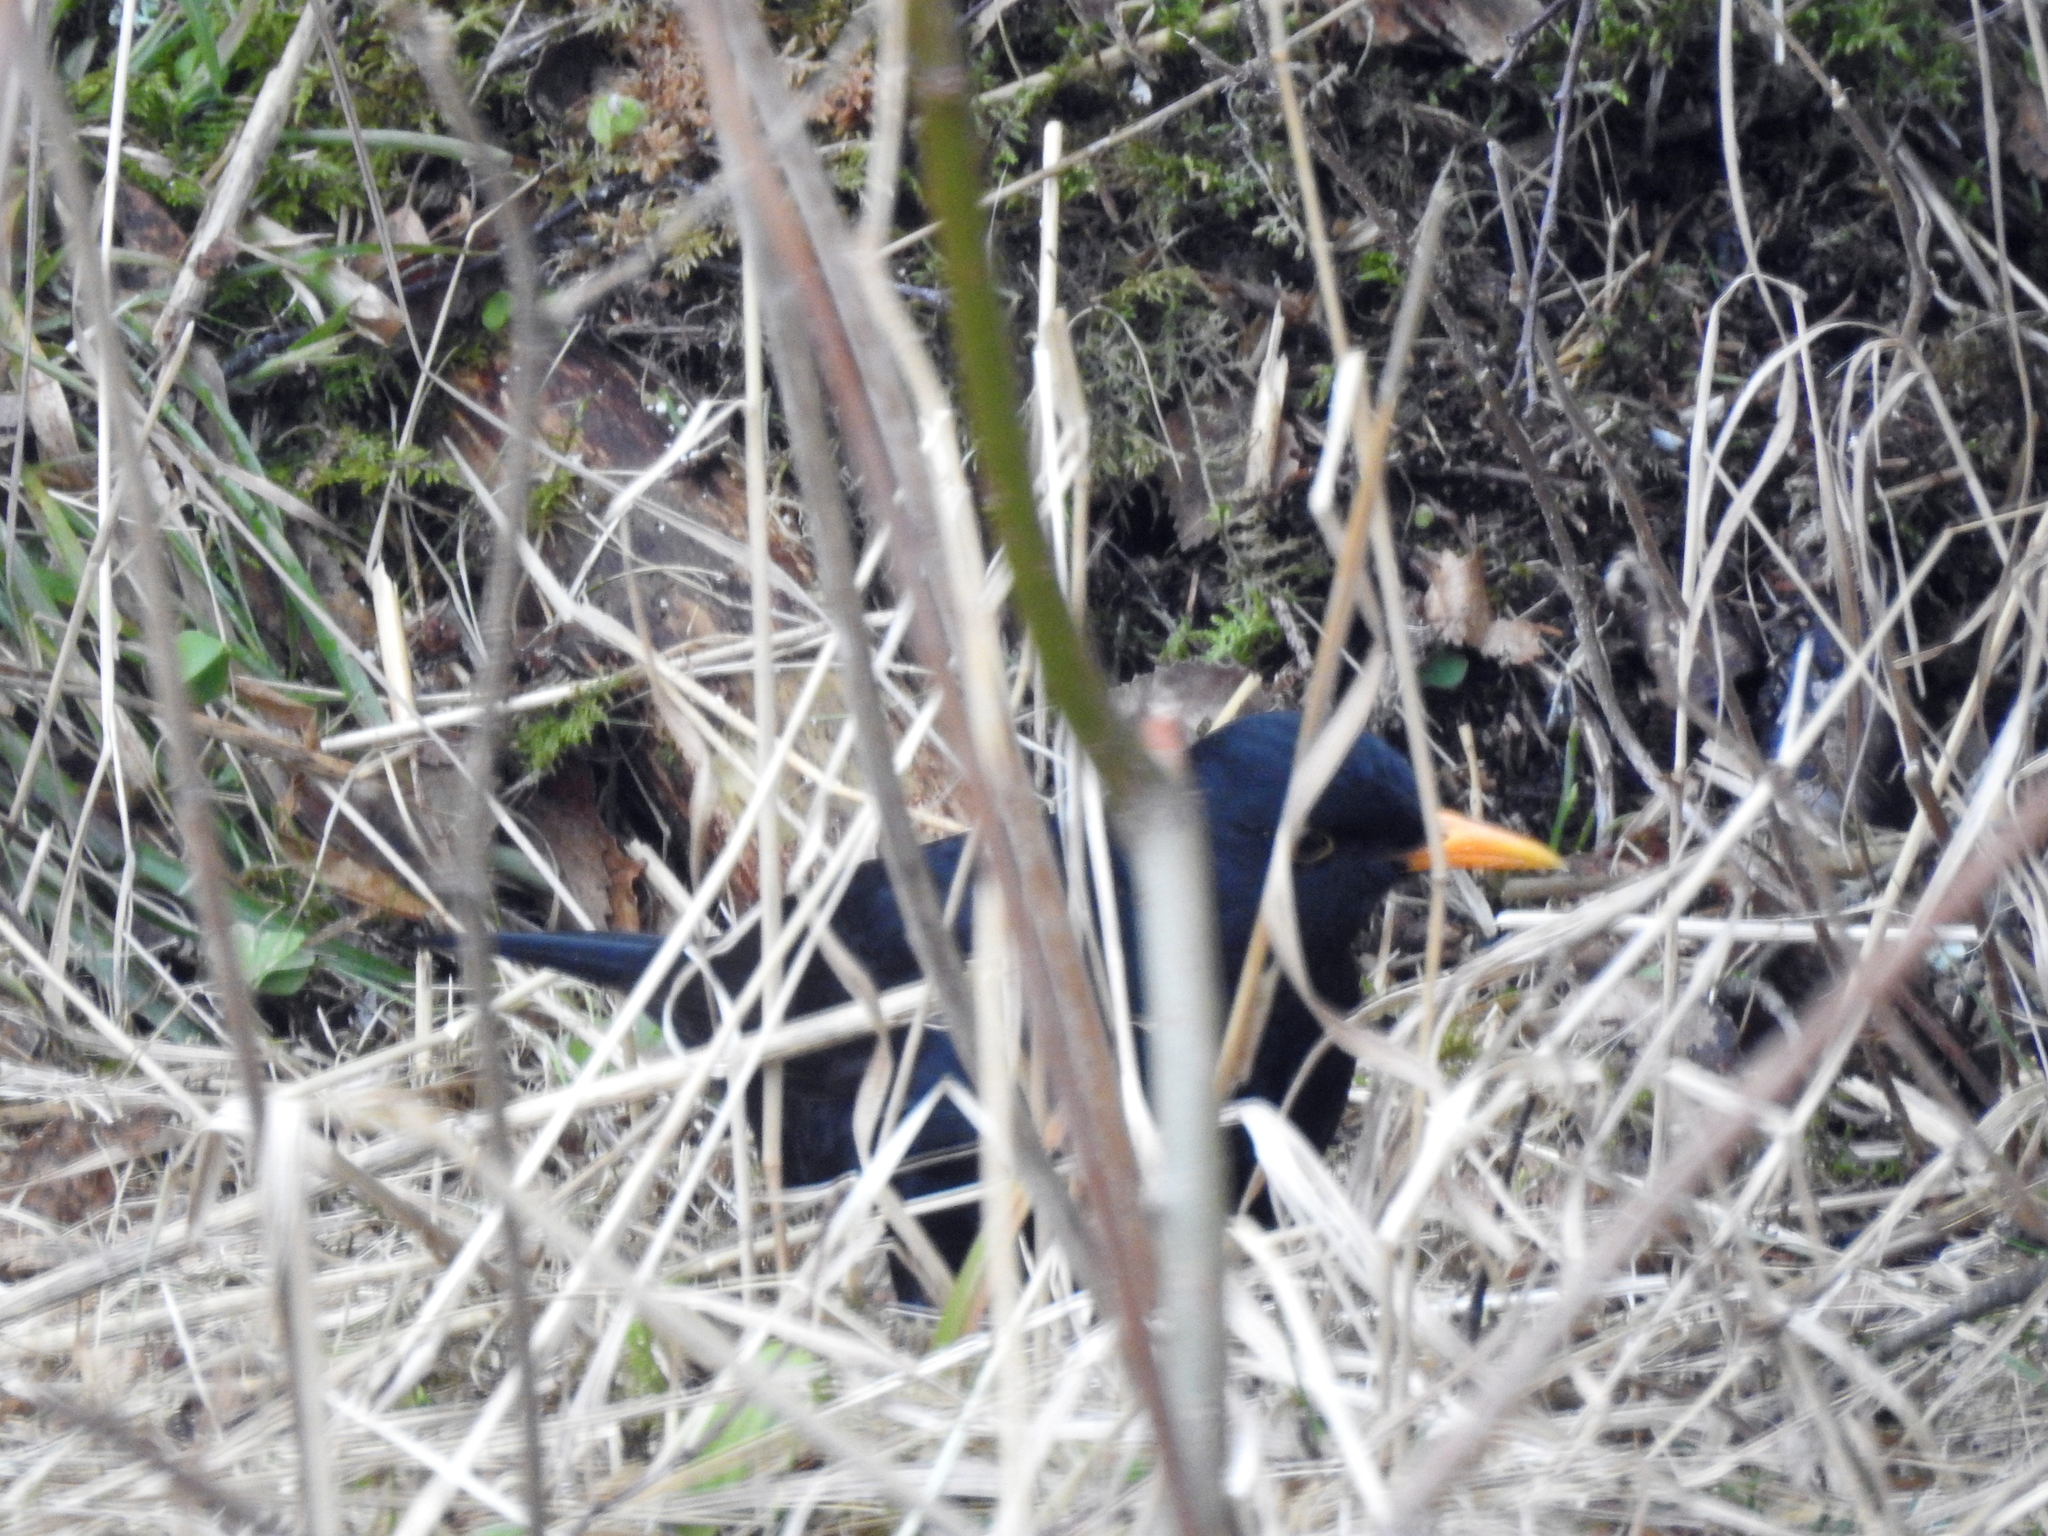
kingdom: Animalia
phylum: Chordata
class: Aves
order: Passeriformes
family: Turdidae
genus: Turdus
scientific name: Turdus merula
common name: Common blackbird
